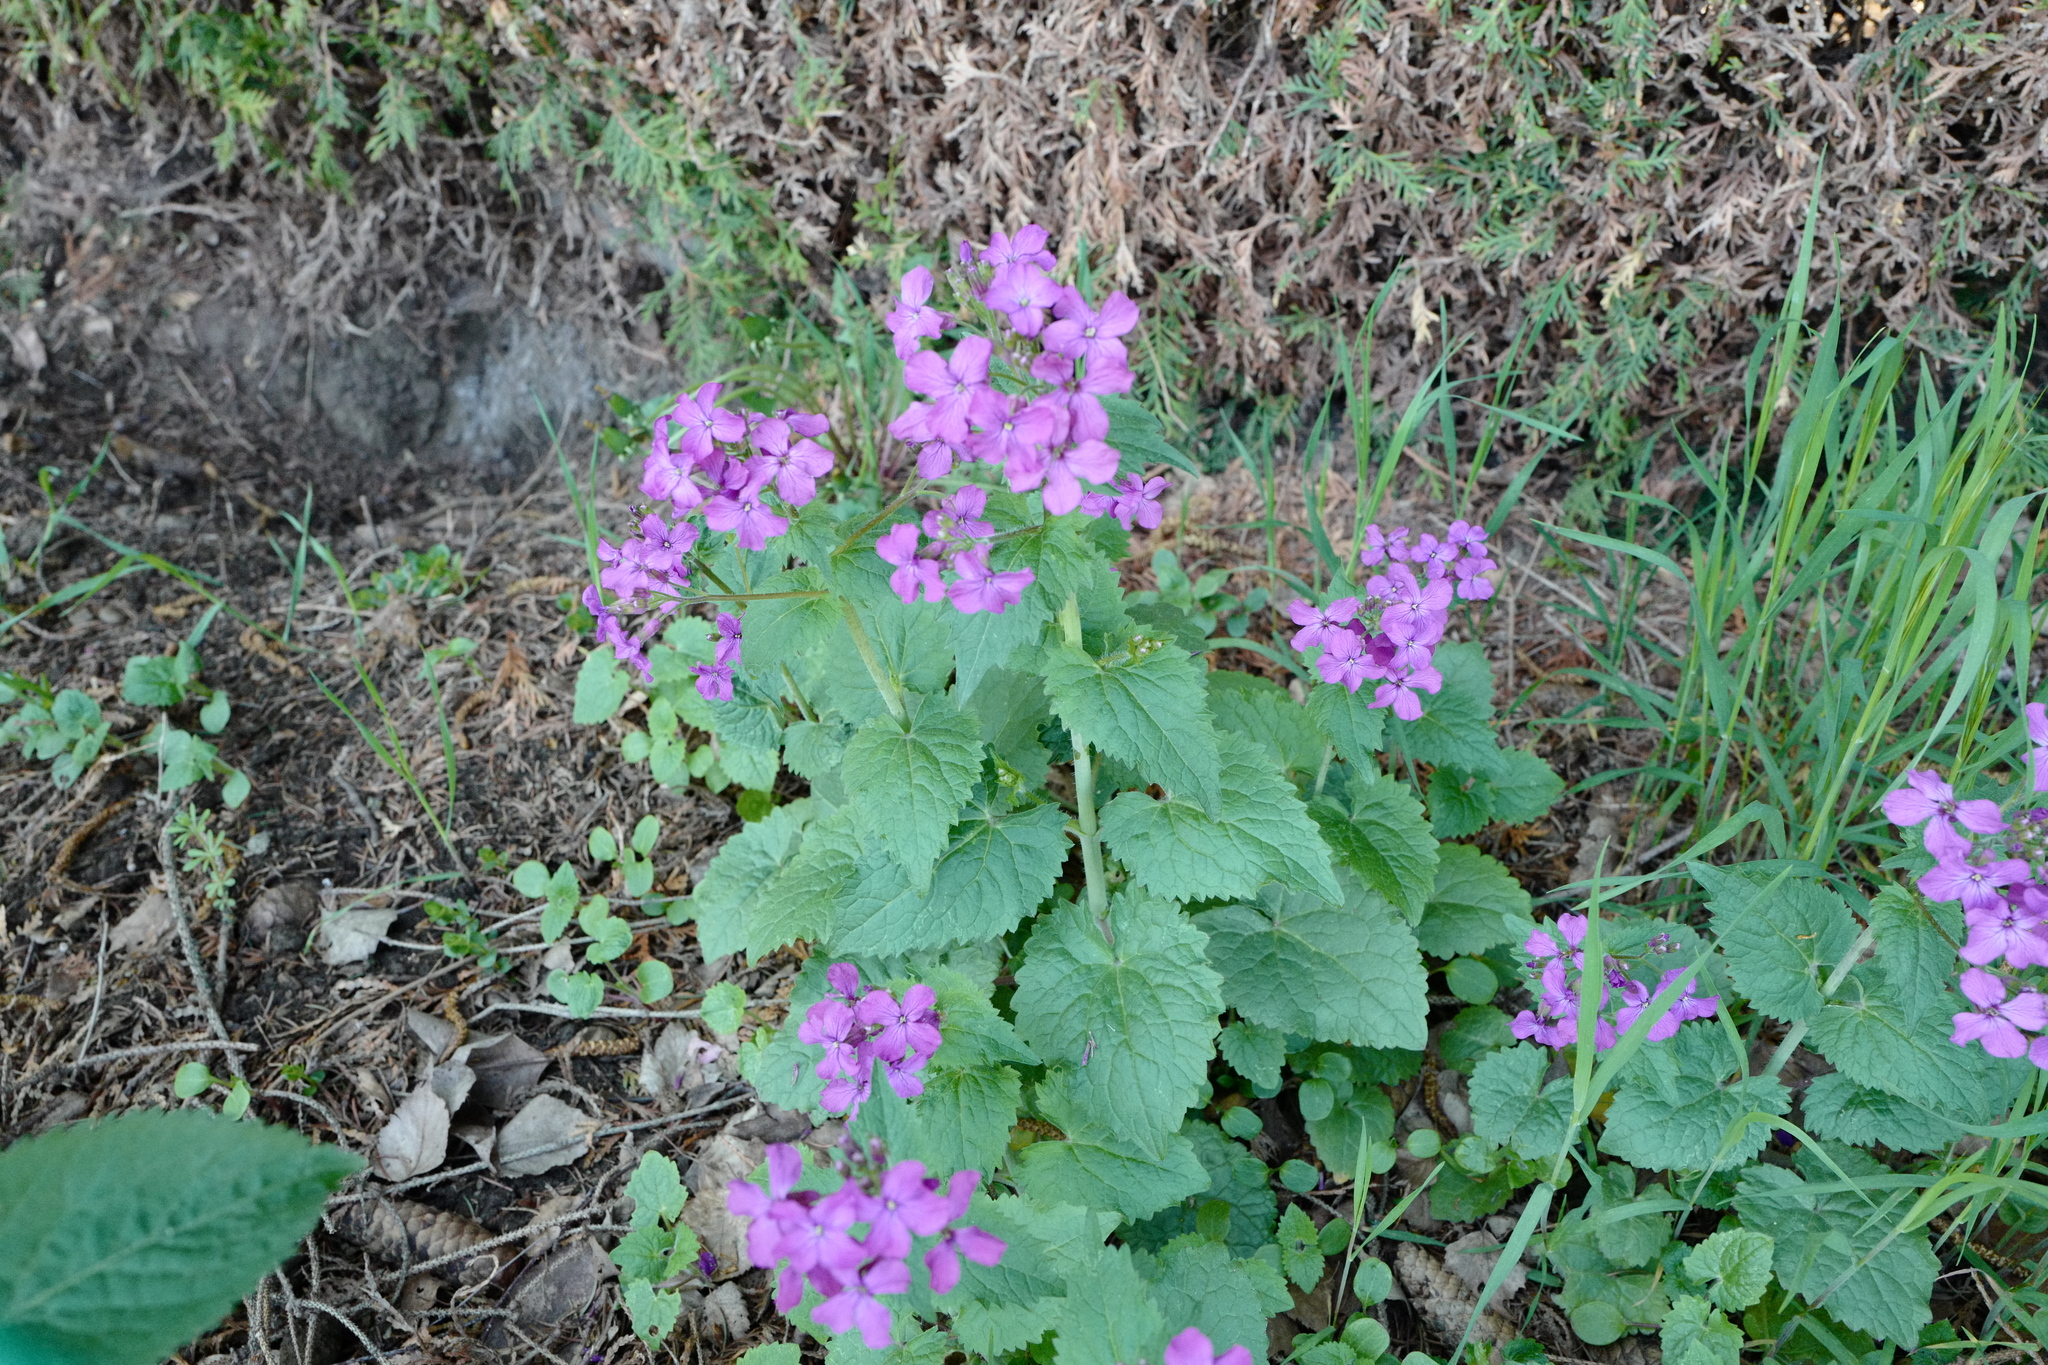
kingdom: Plantae
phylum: Tracheophyta
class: Magnoliopsida
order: Brassicales
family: Brassicaceae
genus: Lunaria
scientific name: Lunaria annua
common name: Honesty
